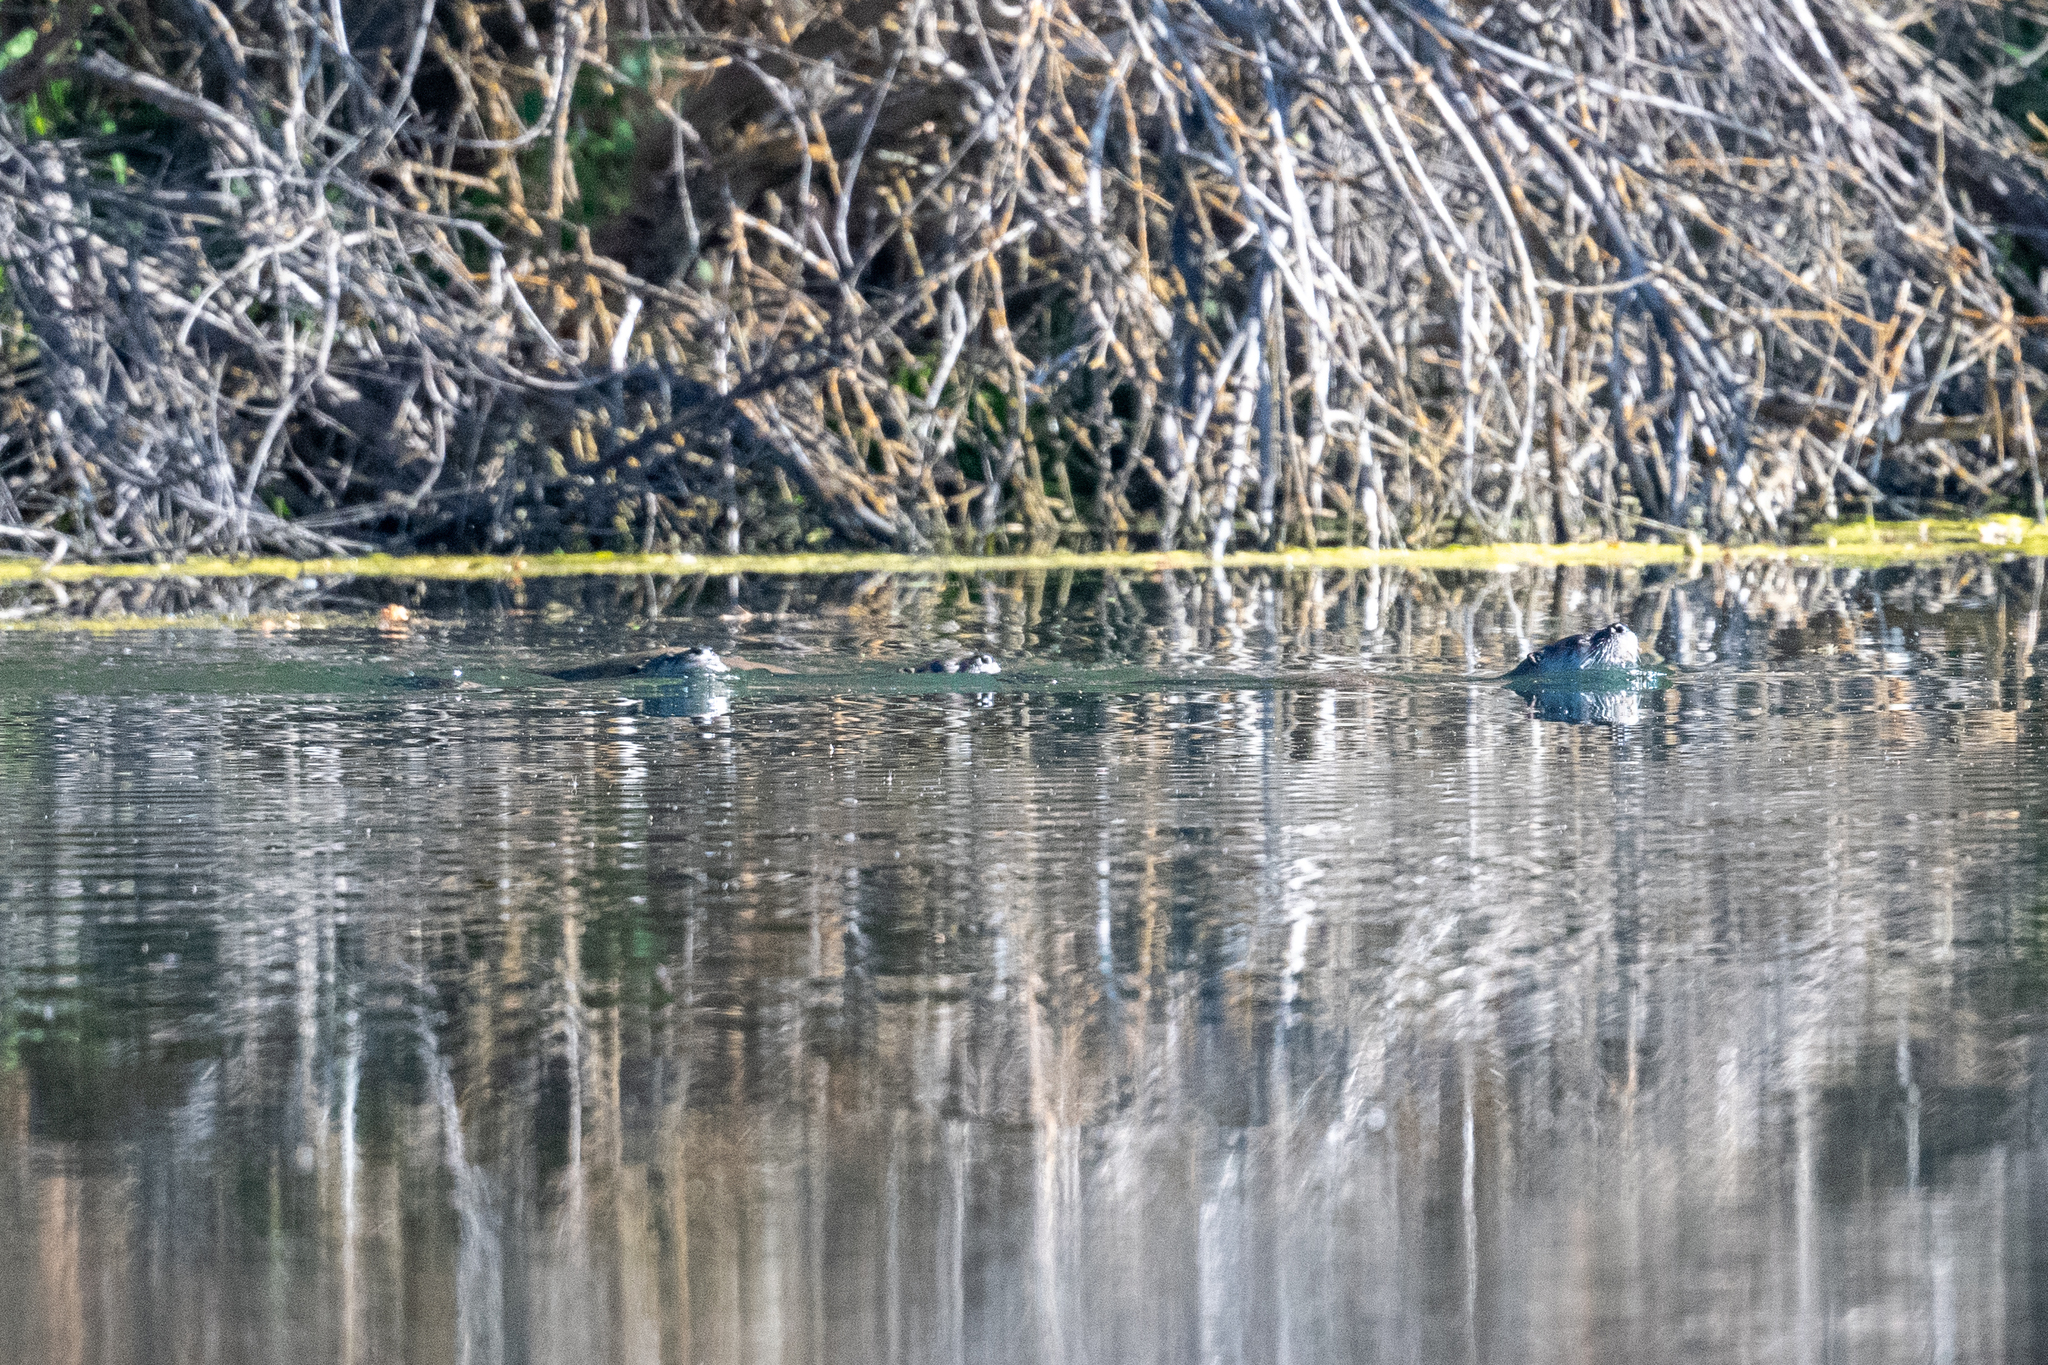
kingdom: Animalia
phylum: Chordata
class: Mammalia
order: Carnivora
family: Mustelidae
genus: Lontra
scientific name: Lontra canadensis
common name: North american river otter
